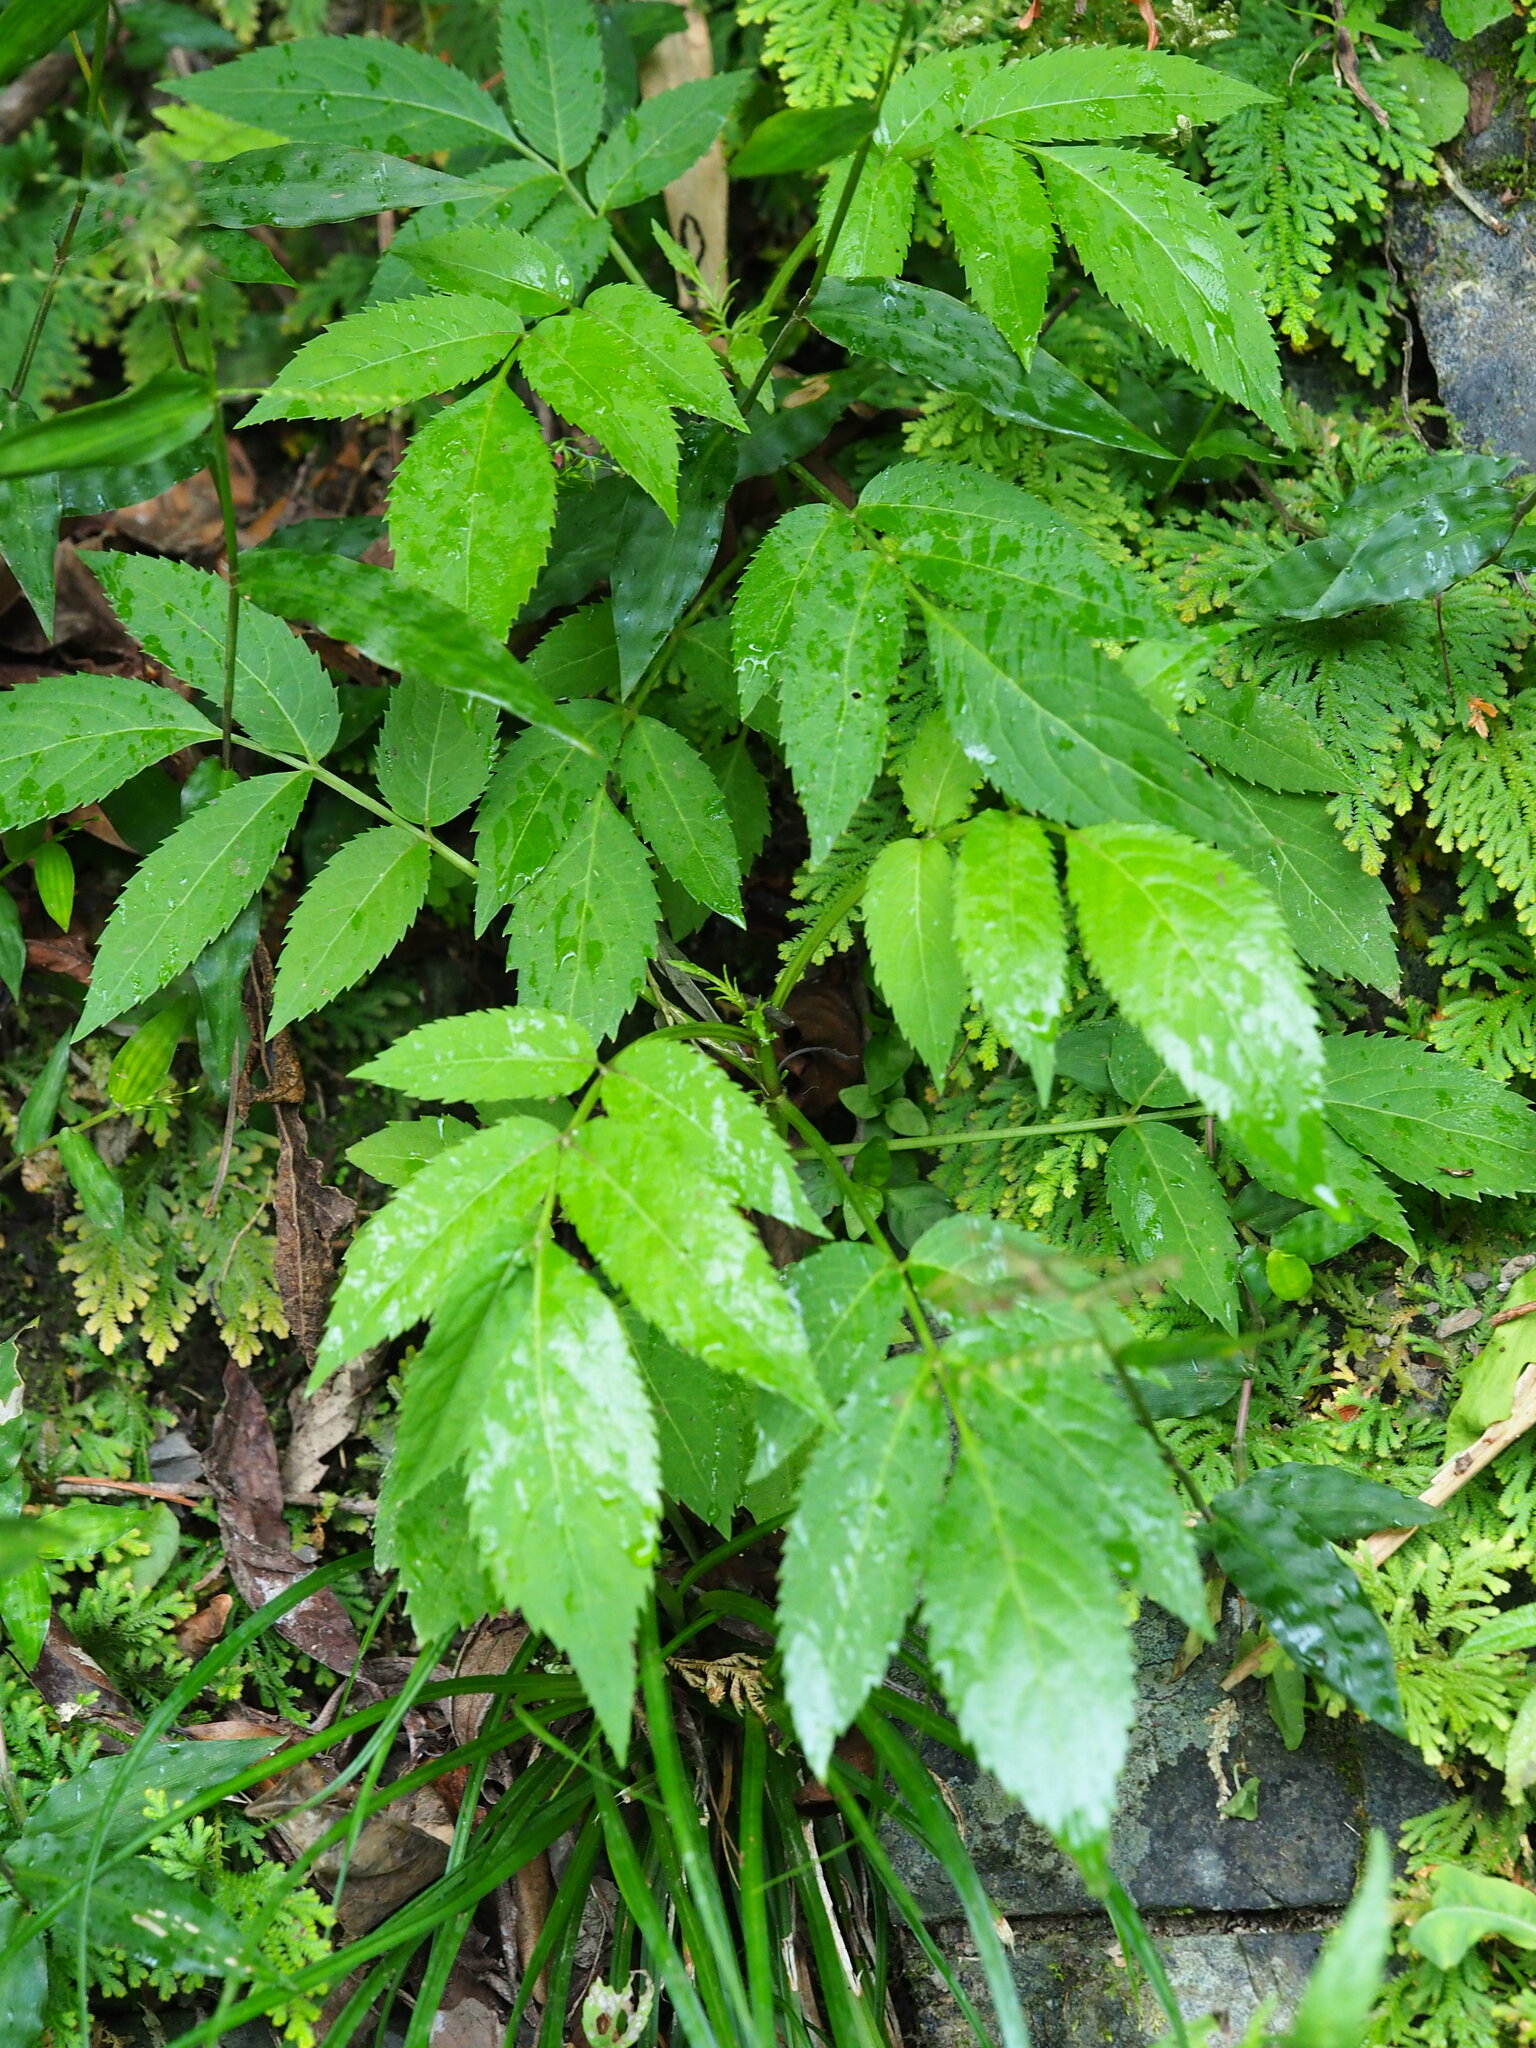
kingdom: Plantae
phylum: Tracheophyta
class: Magnoliopsida
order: Dipsacales
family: Viburnaceae
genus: Sambucus
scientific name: Sambucus javanica
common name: Chinese elder
